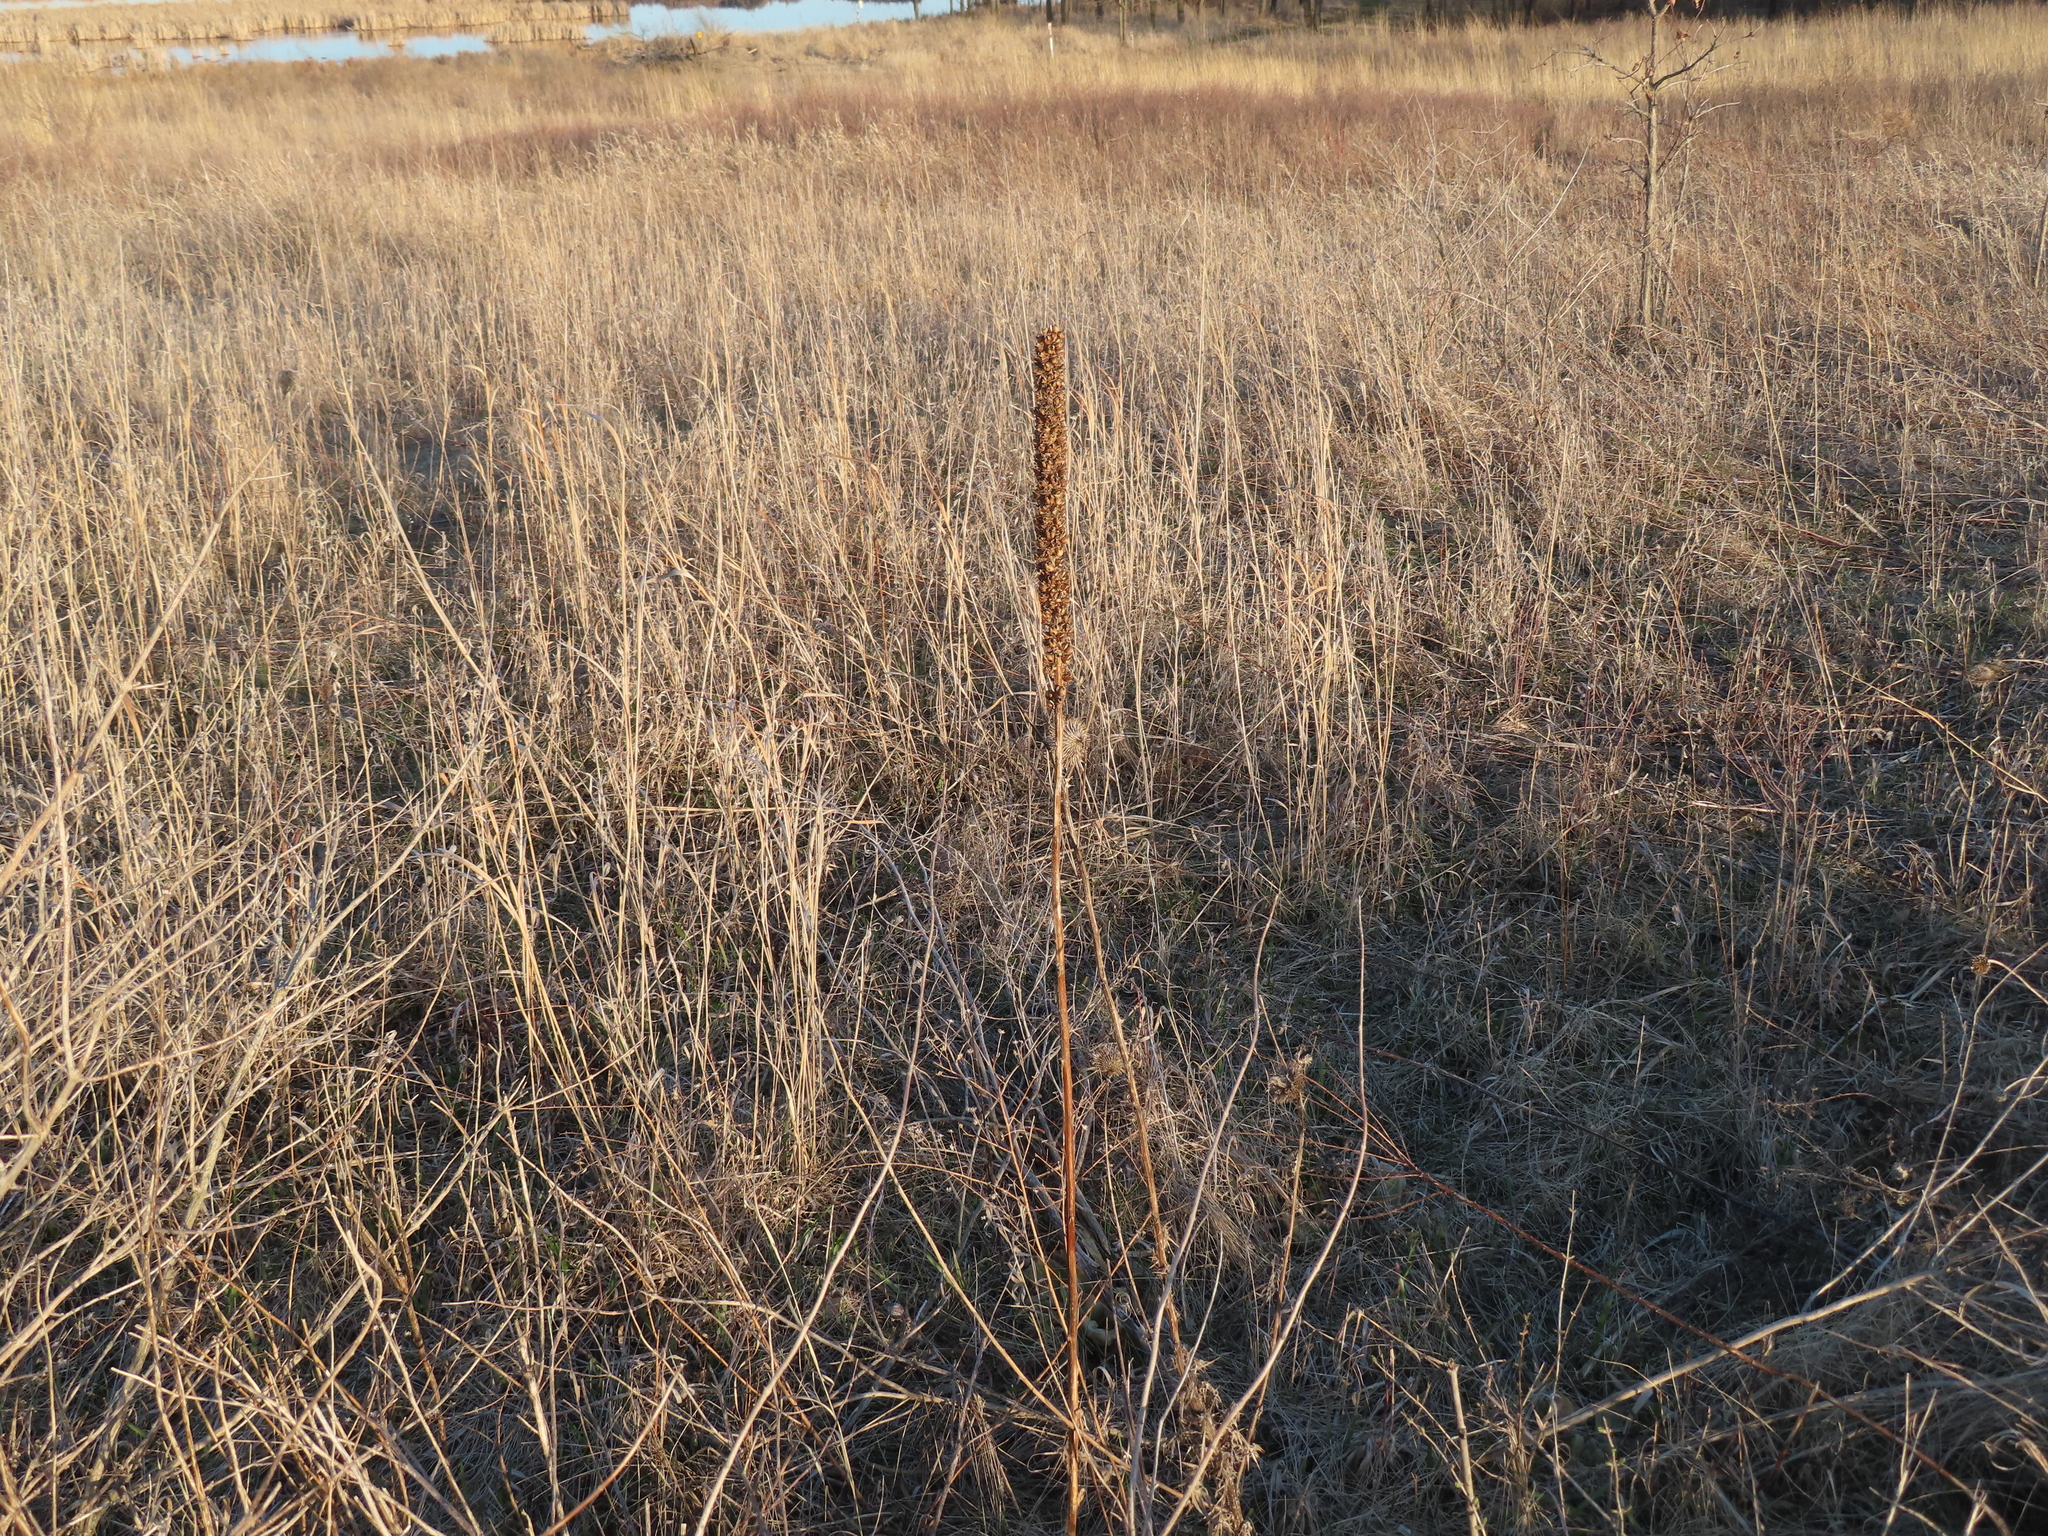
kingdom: Plantae
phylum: Tracheophyta
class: Magnoliopsida
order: Lamiales
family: Scrophulariaceae
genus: Verbascum
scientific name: Verbascum thapsus
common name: Common mullein
